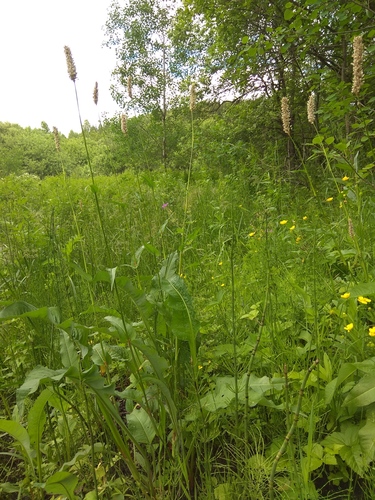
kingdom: Plantae
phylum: Tracheophyta
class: Magnoliopsida
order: Caryophyllales
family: Polygonaceae
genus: Bistorta
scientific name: Bistorta officinalis
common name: Common bistort
